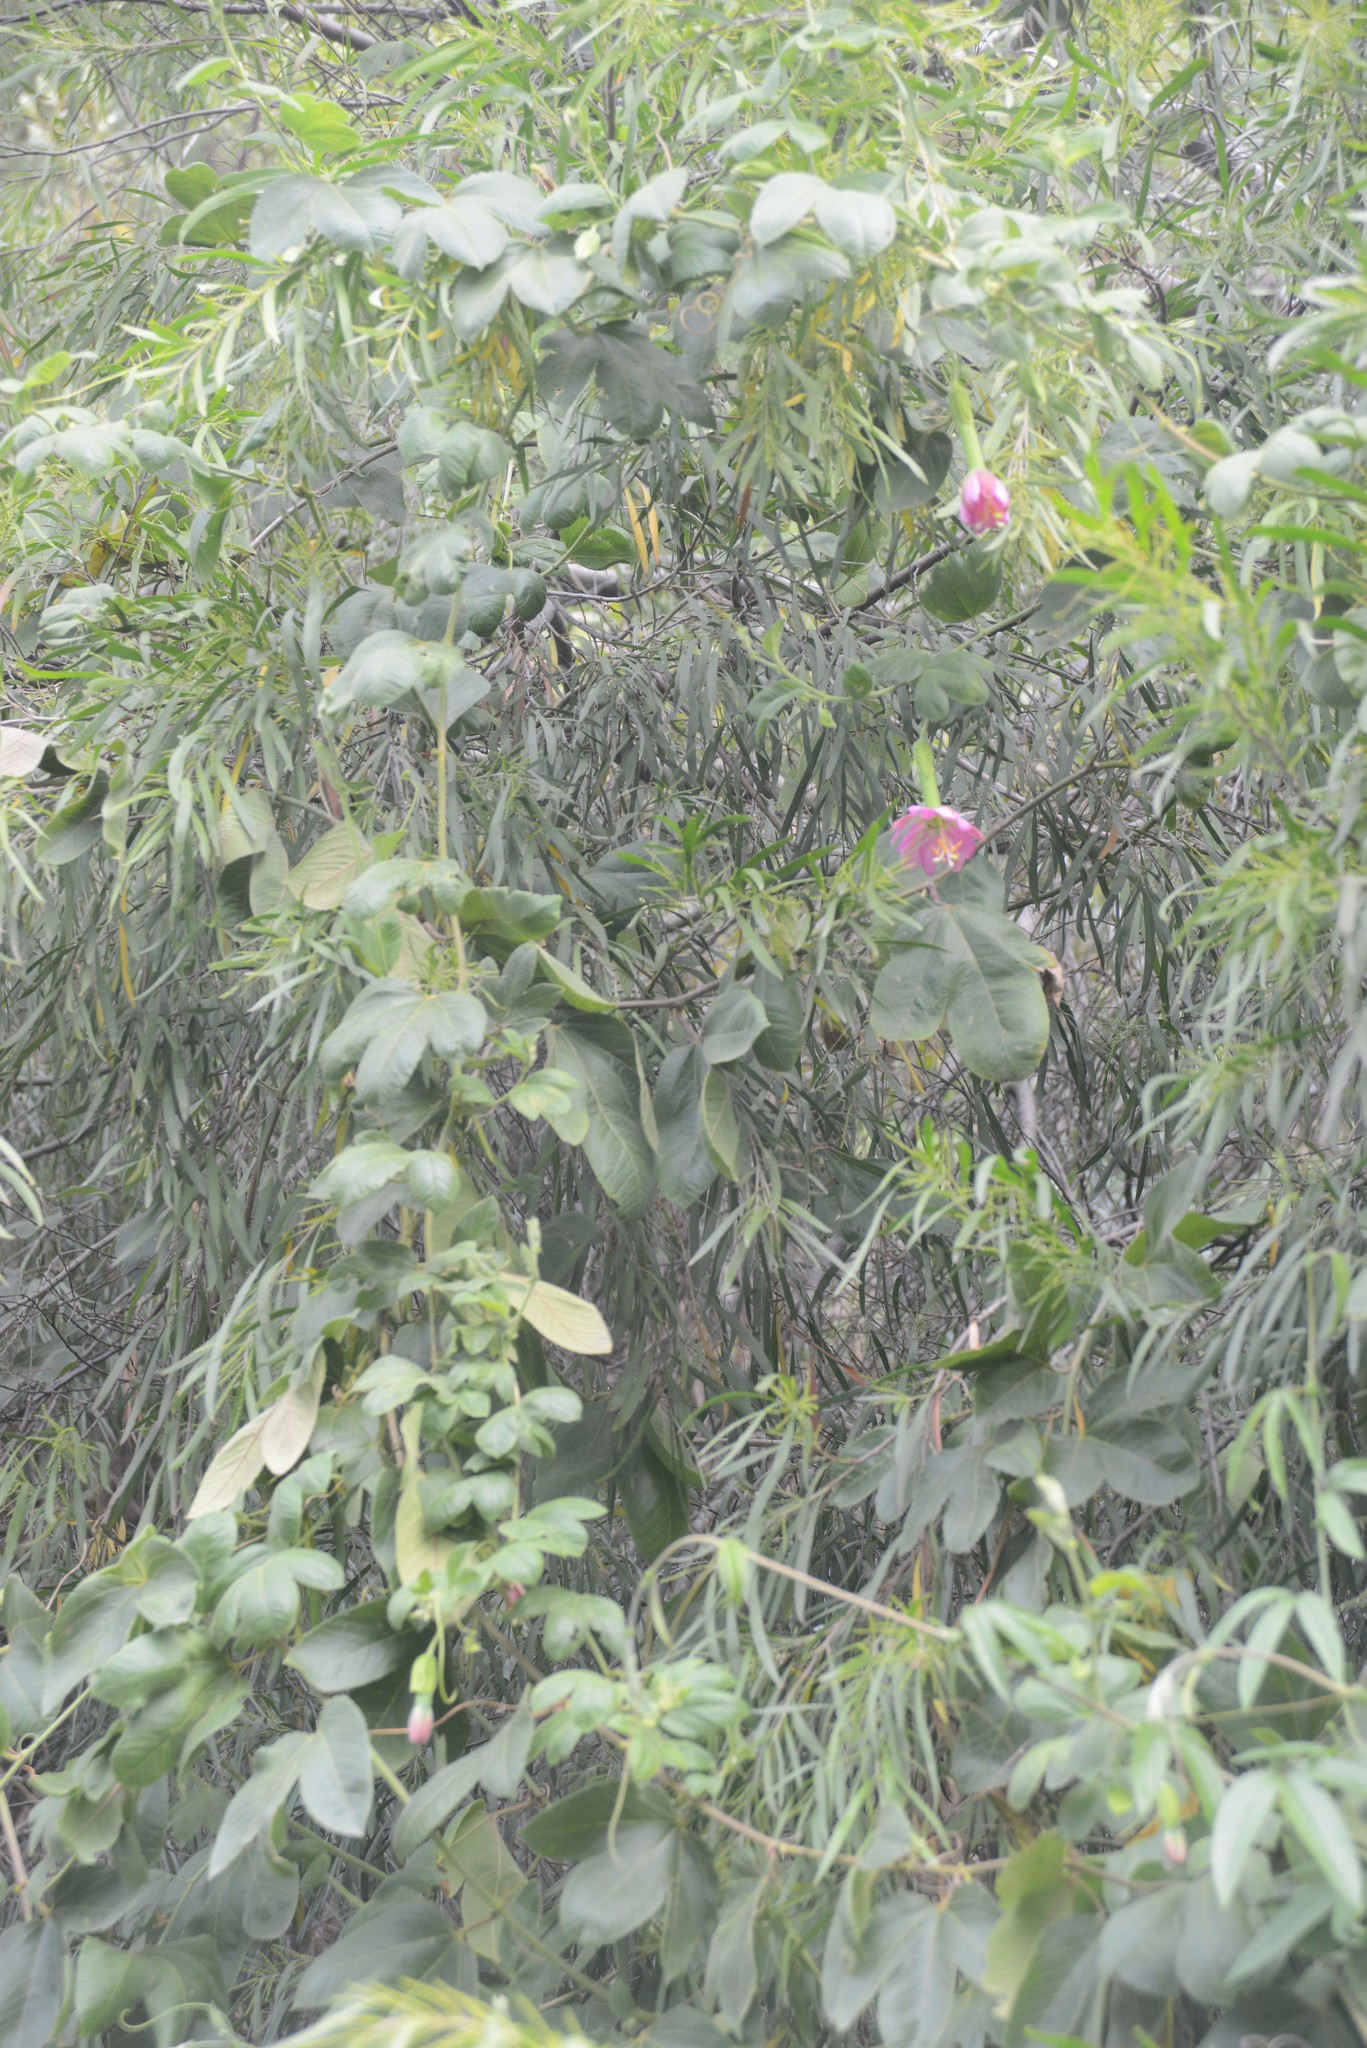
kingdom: Plantae
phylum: Tracheophyta
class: Magnoliopsida
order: Malpighiales
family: Passifloraceae
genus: Passiflora
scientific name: Passiflora tripartita
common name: Banana poka
